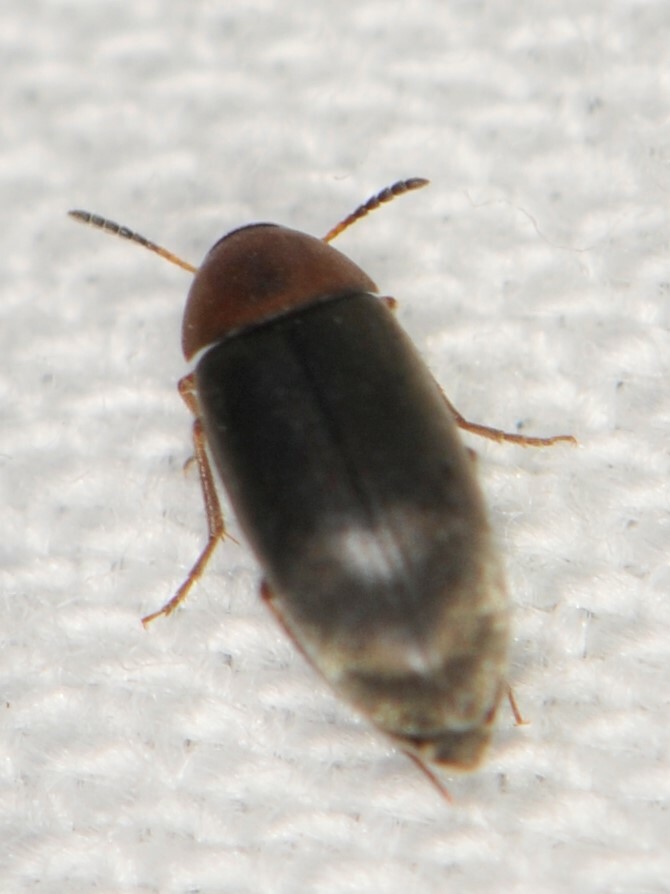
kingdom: Animalia
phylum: Arthropoda
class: Insecta
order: Coleoptera
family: Scraptiidae
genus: Pentaria
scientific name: Pentaria dispar
